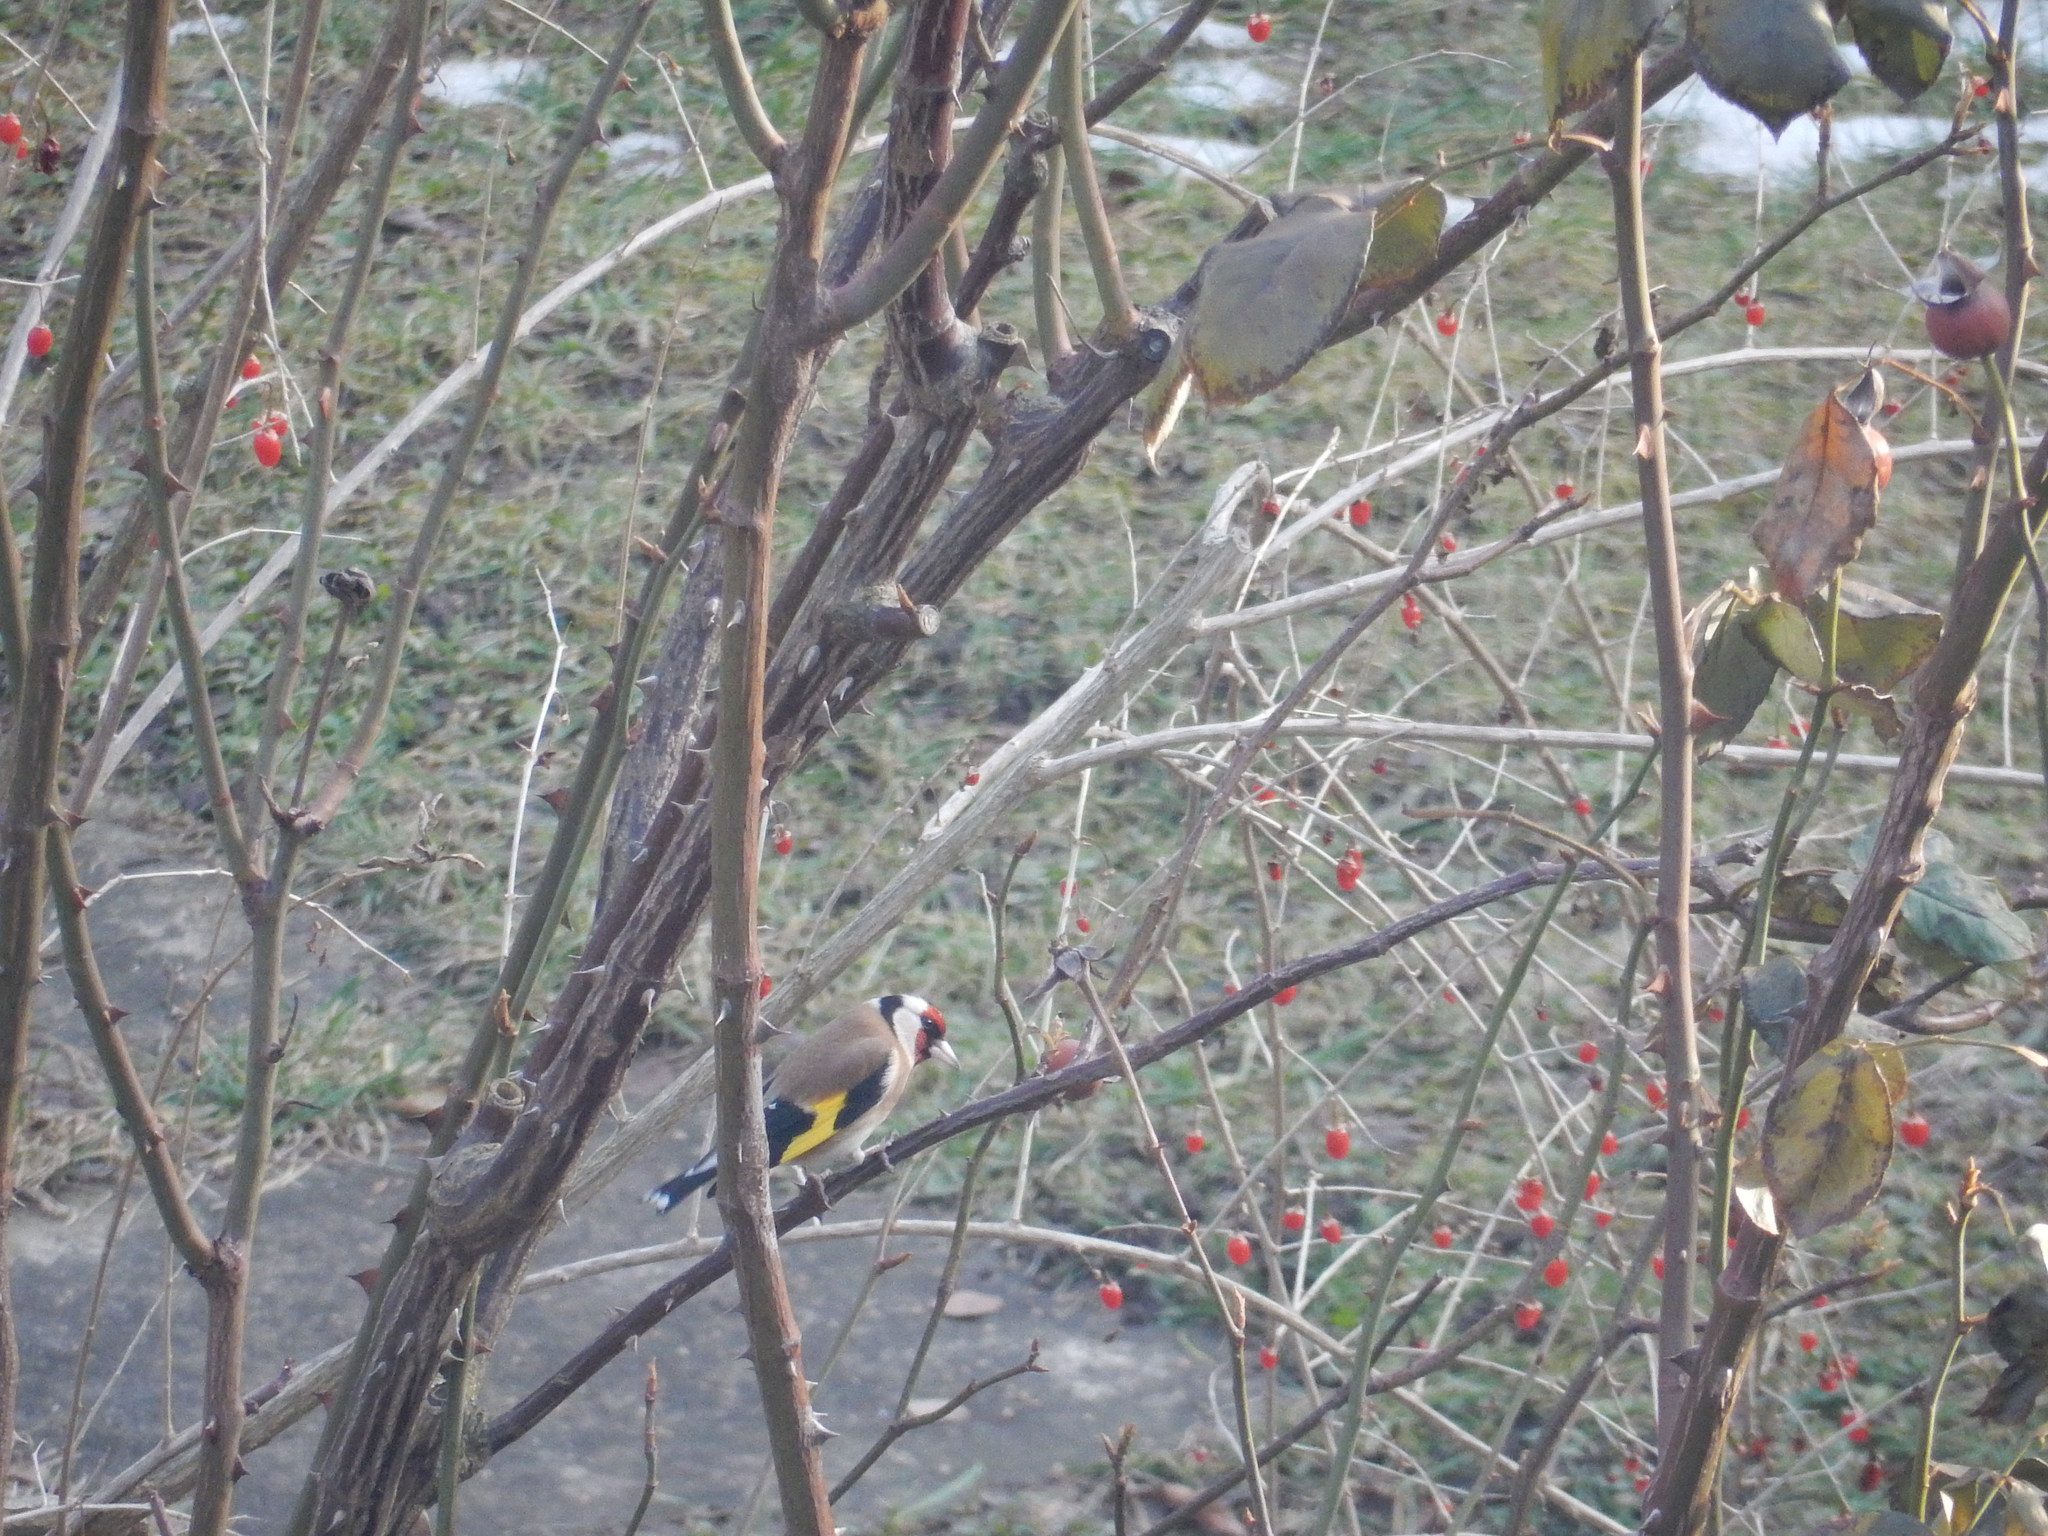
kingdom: Animalia
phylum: Chordata
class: Aves
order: Passeriformes
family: Fringillidae
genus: Carduelis
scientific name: Carduelis carduelis
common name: European goldfinch
